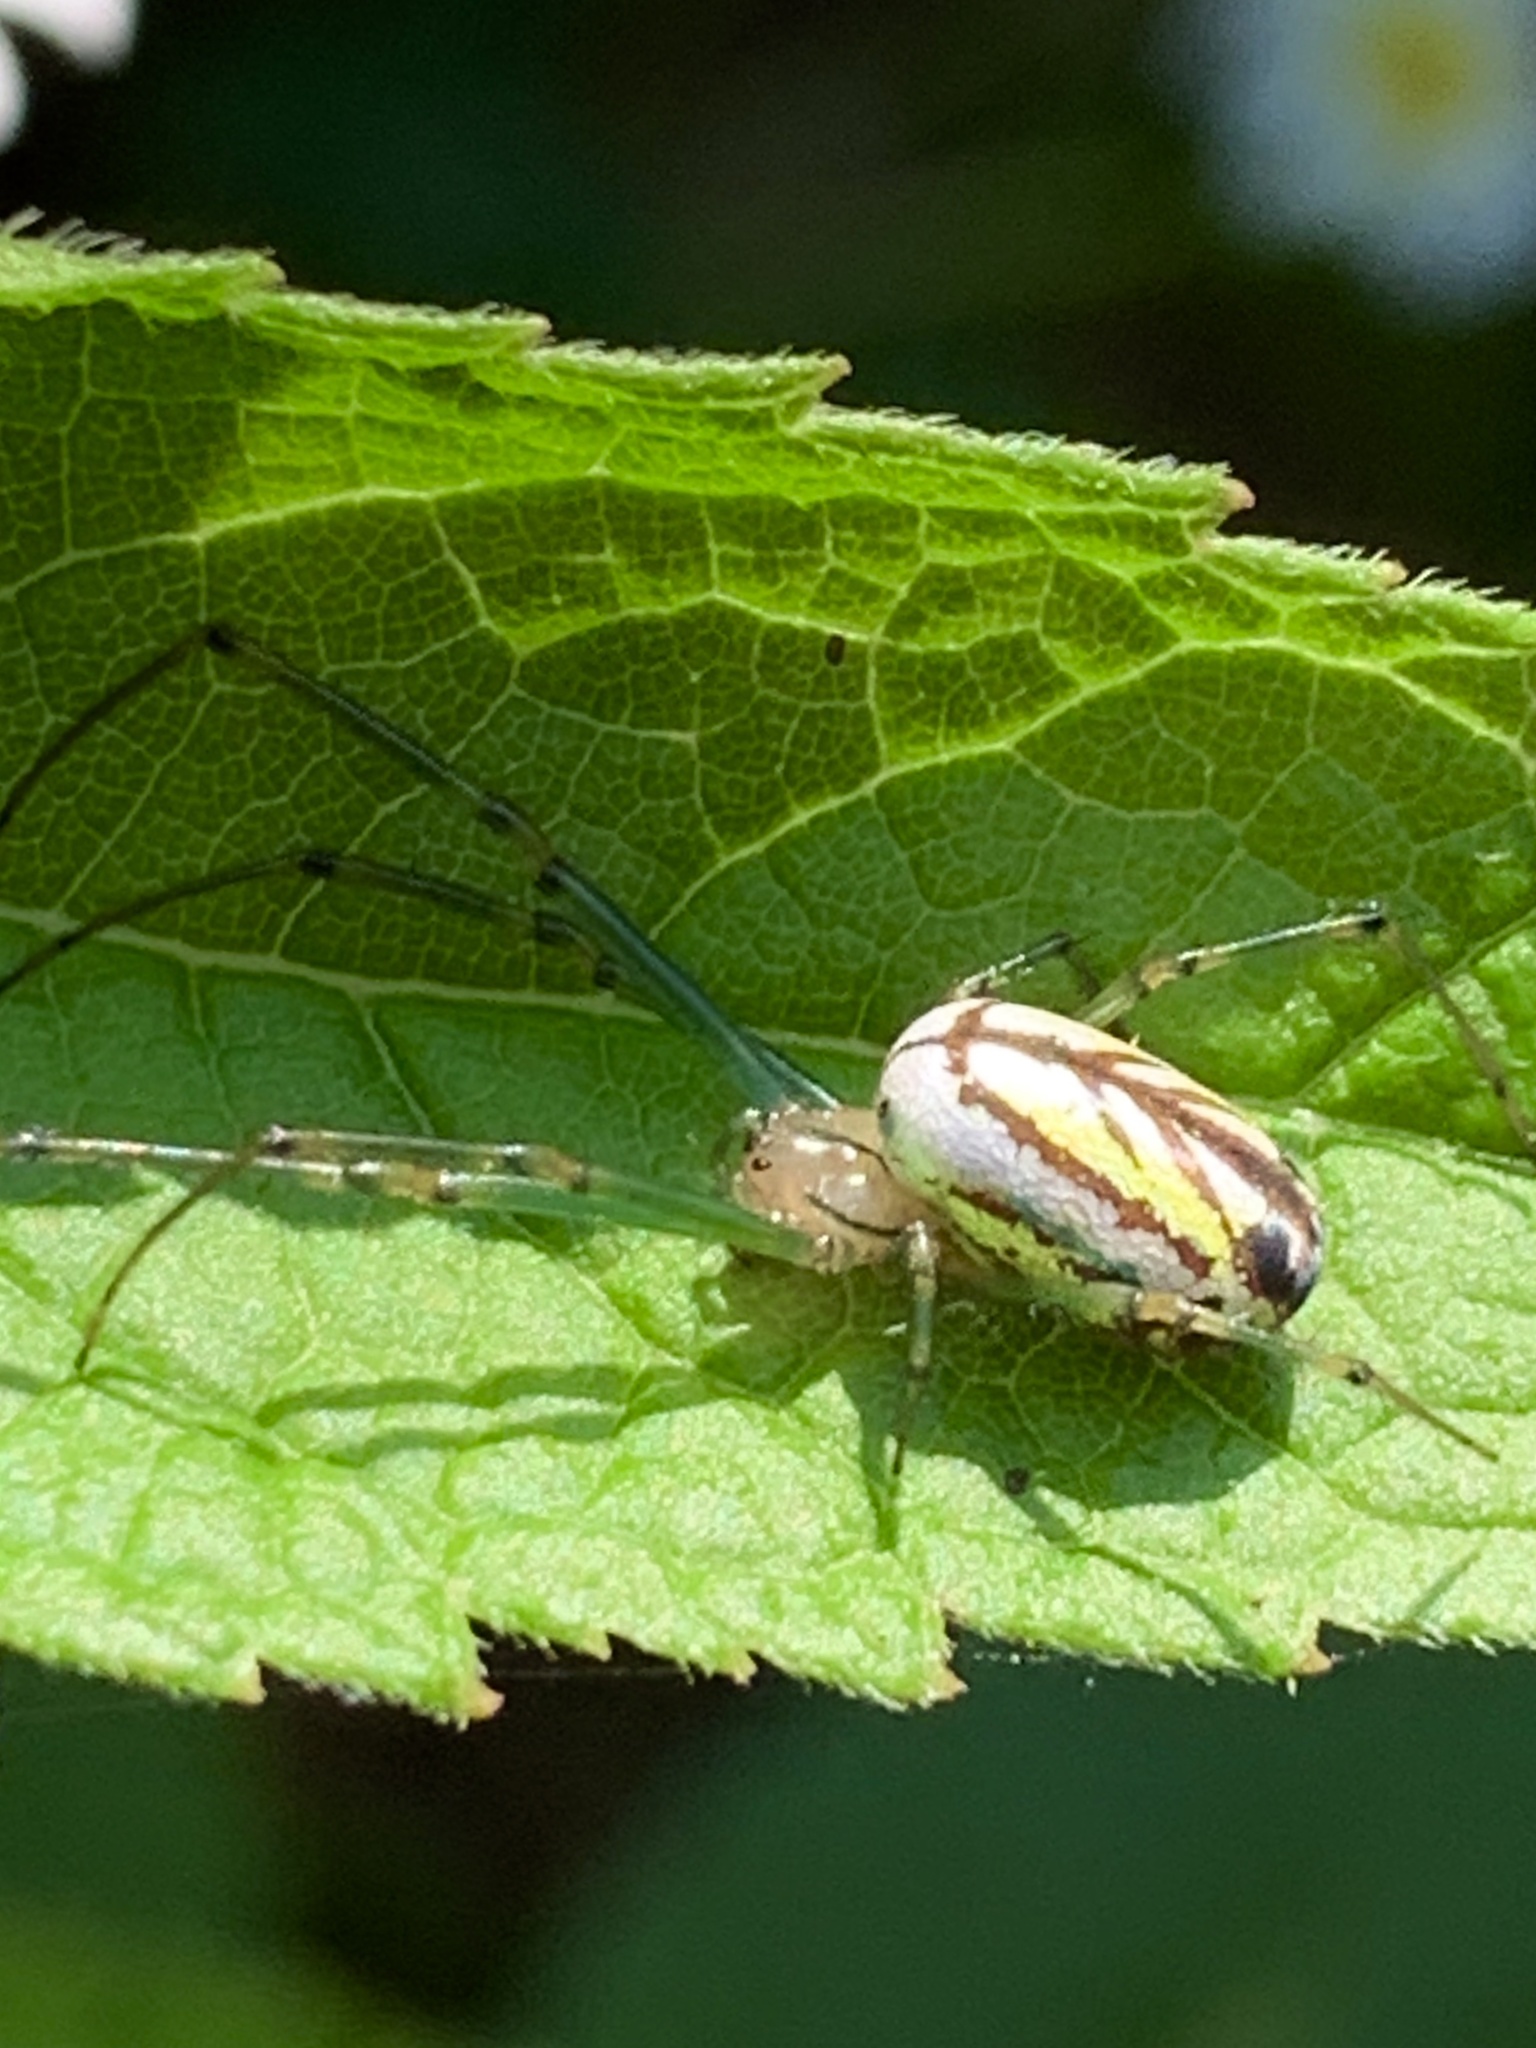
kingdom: Animalia
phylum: Arthropoda
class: Arachnida
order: Araneae
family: Tetragnathidae
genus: Leucauge
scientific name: Leucauge venusta
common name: Longjawed orb weavers
